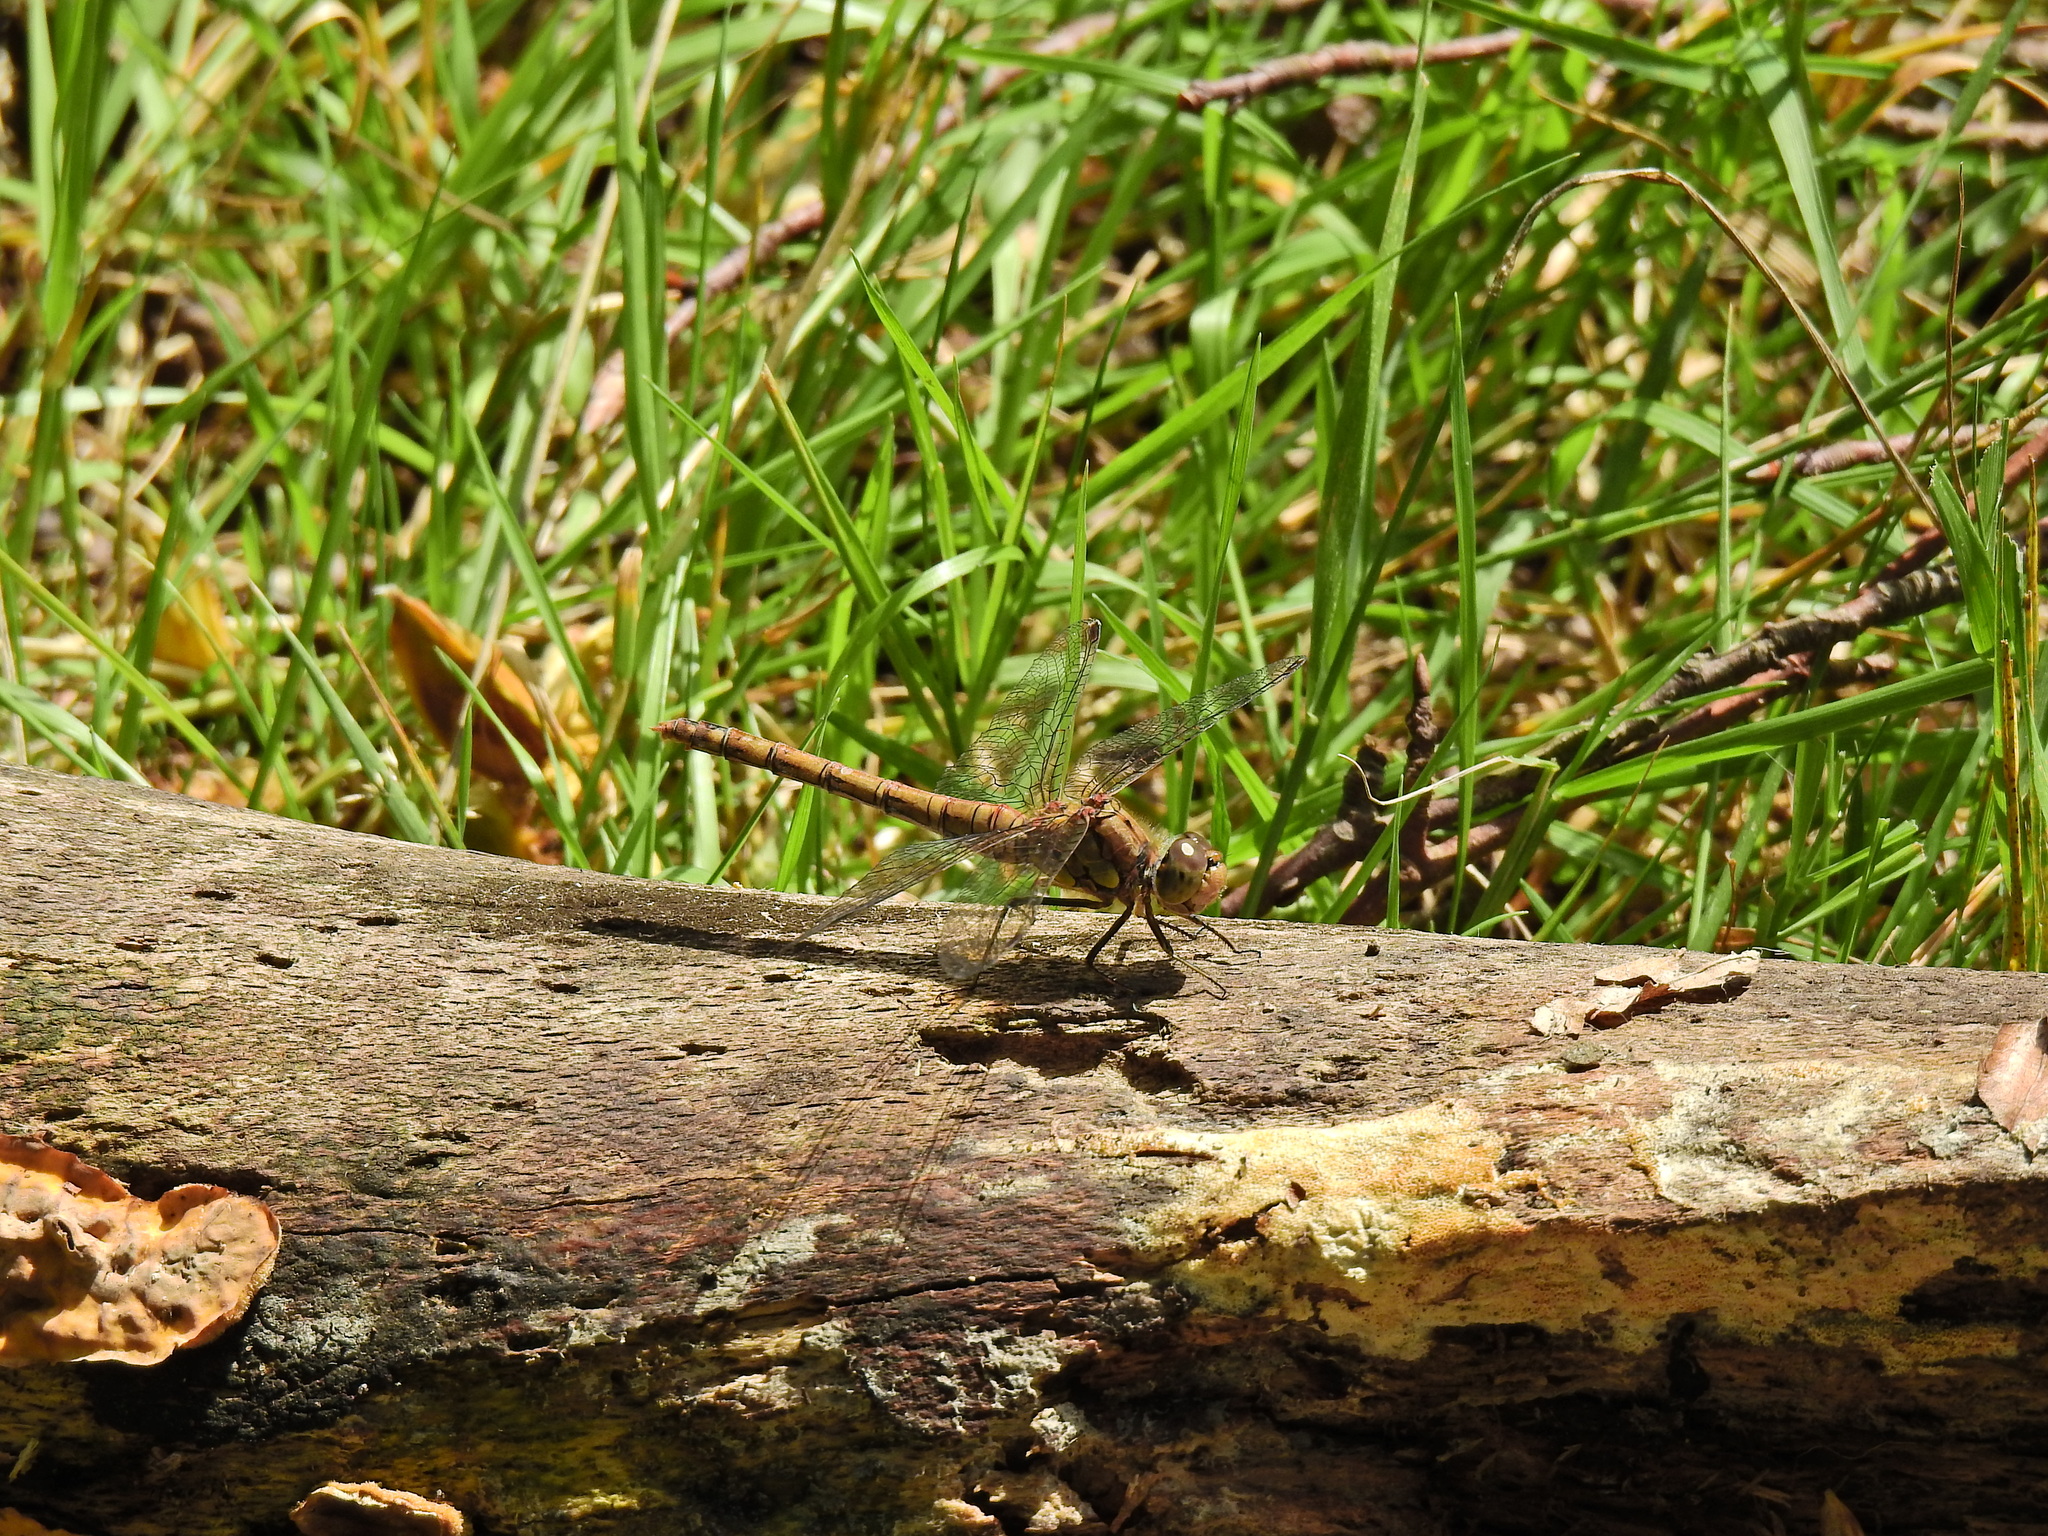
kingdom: Animalia
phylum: Arthropoda
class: Insecta
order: Odonata
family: Libellulidae
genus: Sympetrum
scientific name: Sympetrum striolatum
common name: Common darter
